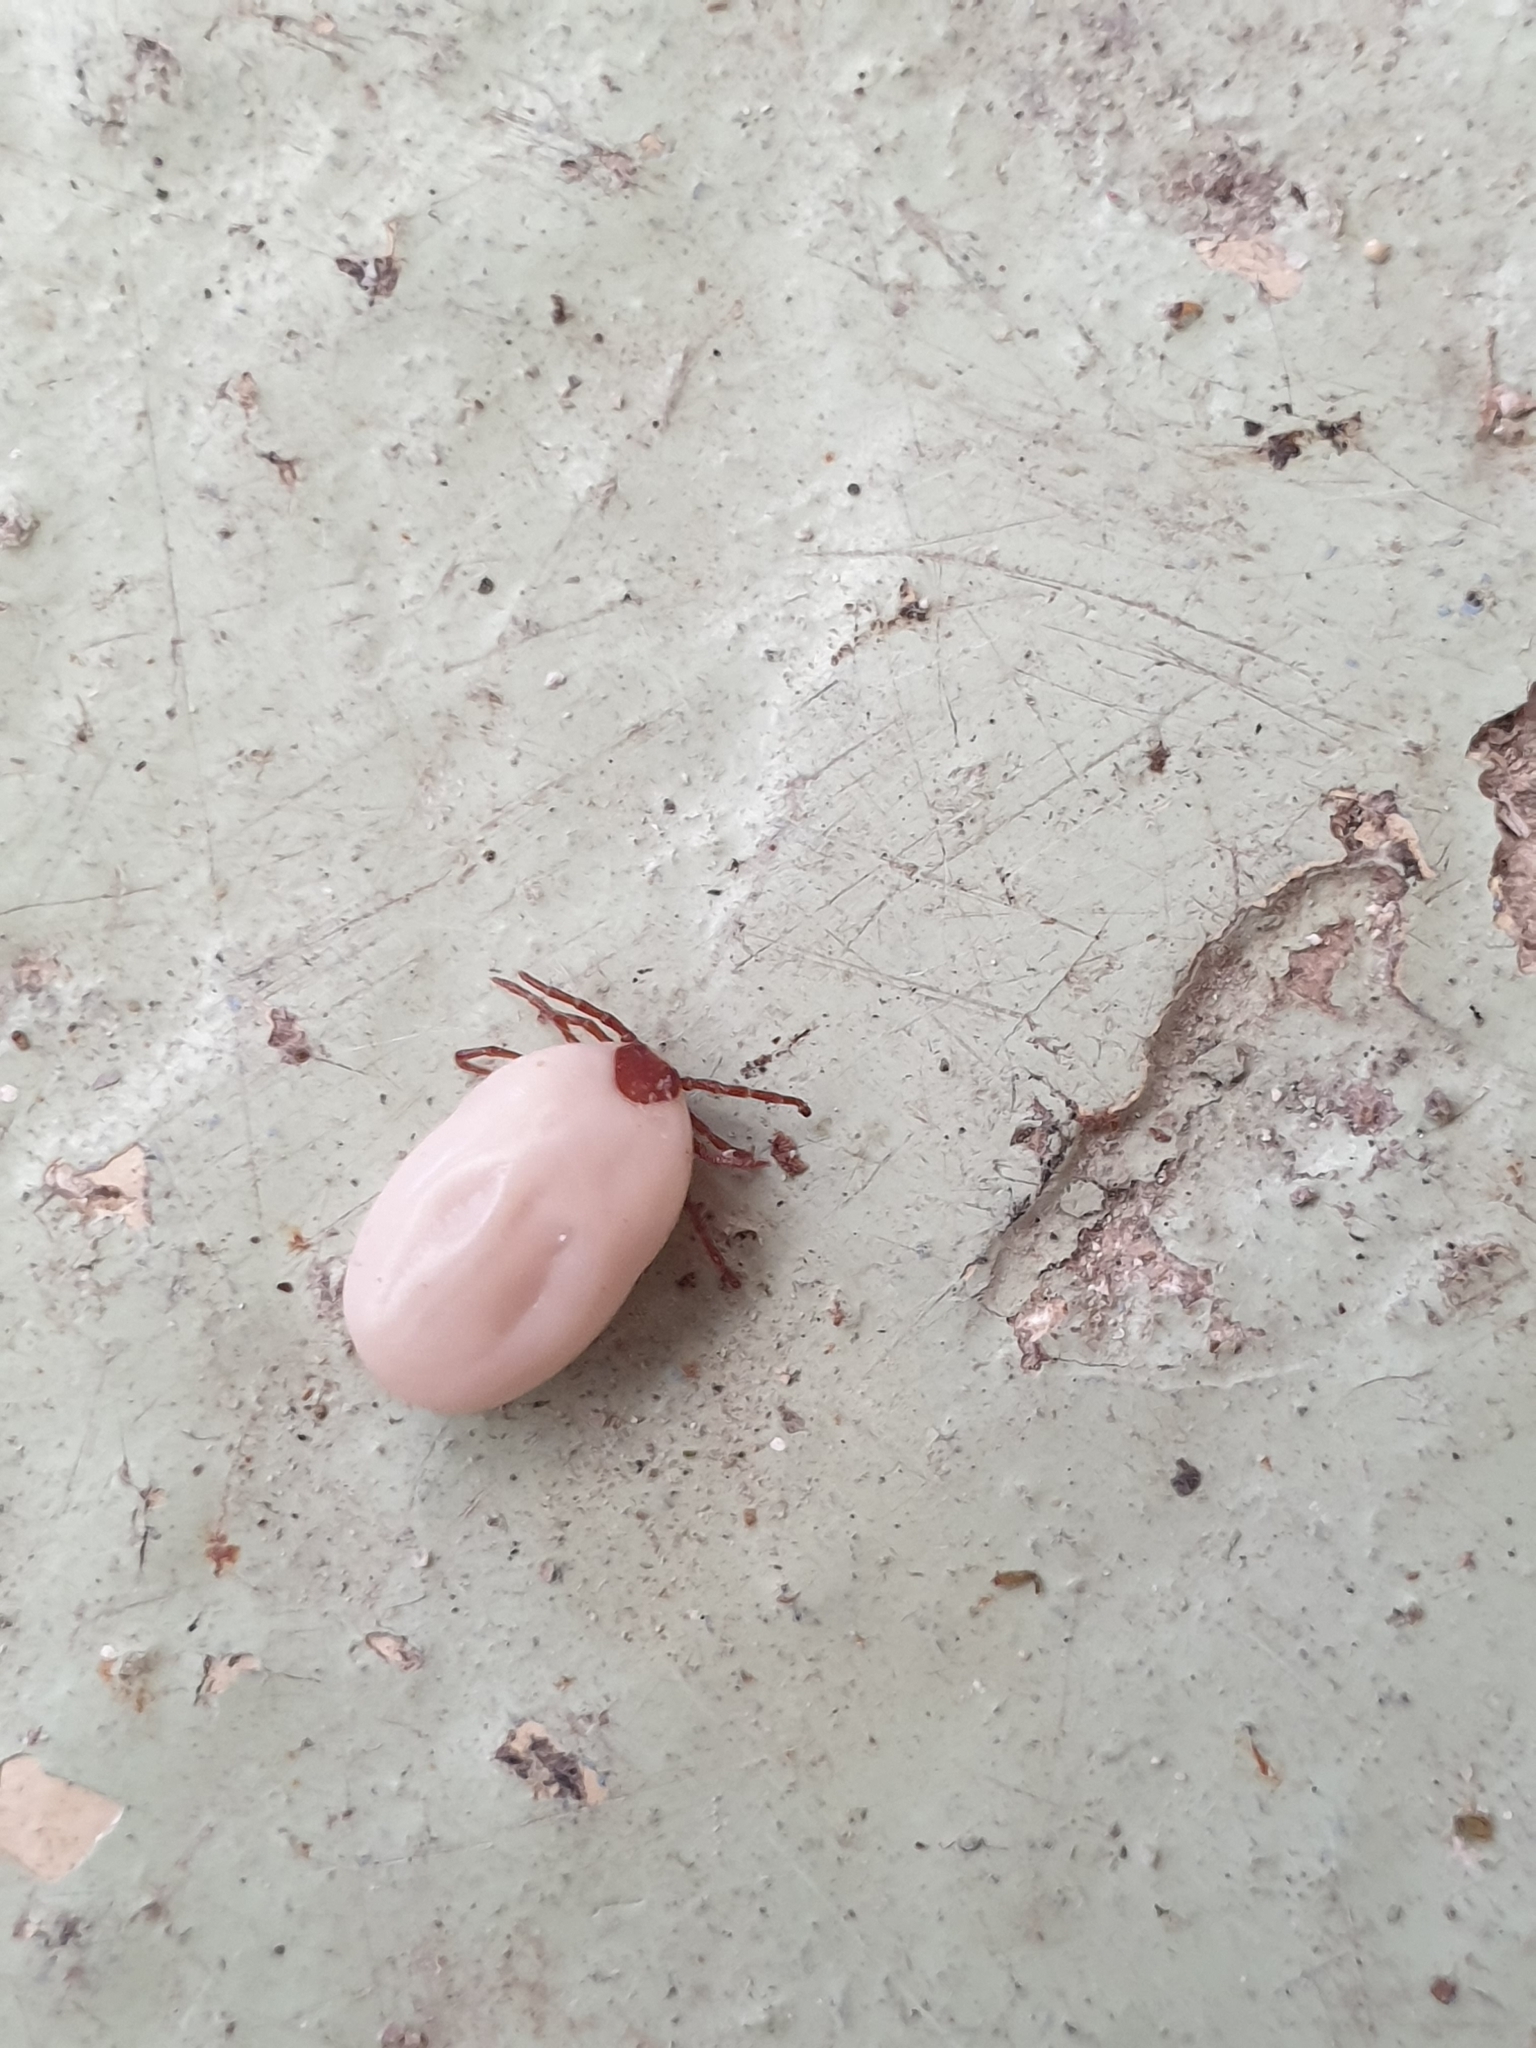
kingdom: Animalia
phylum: Arthropoda
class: Arachnida
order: Ixodida
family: Ixodidae
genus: Ixodes
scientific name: Ixodes hexagonus
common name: Hedgehog tick
